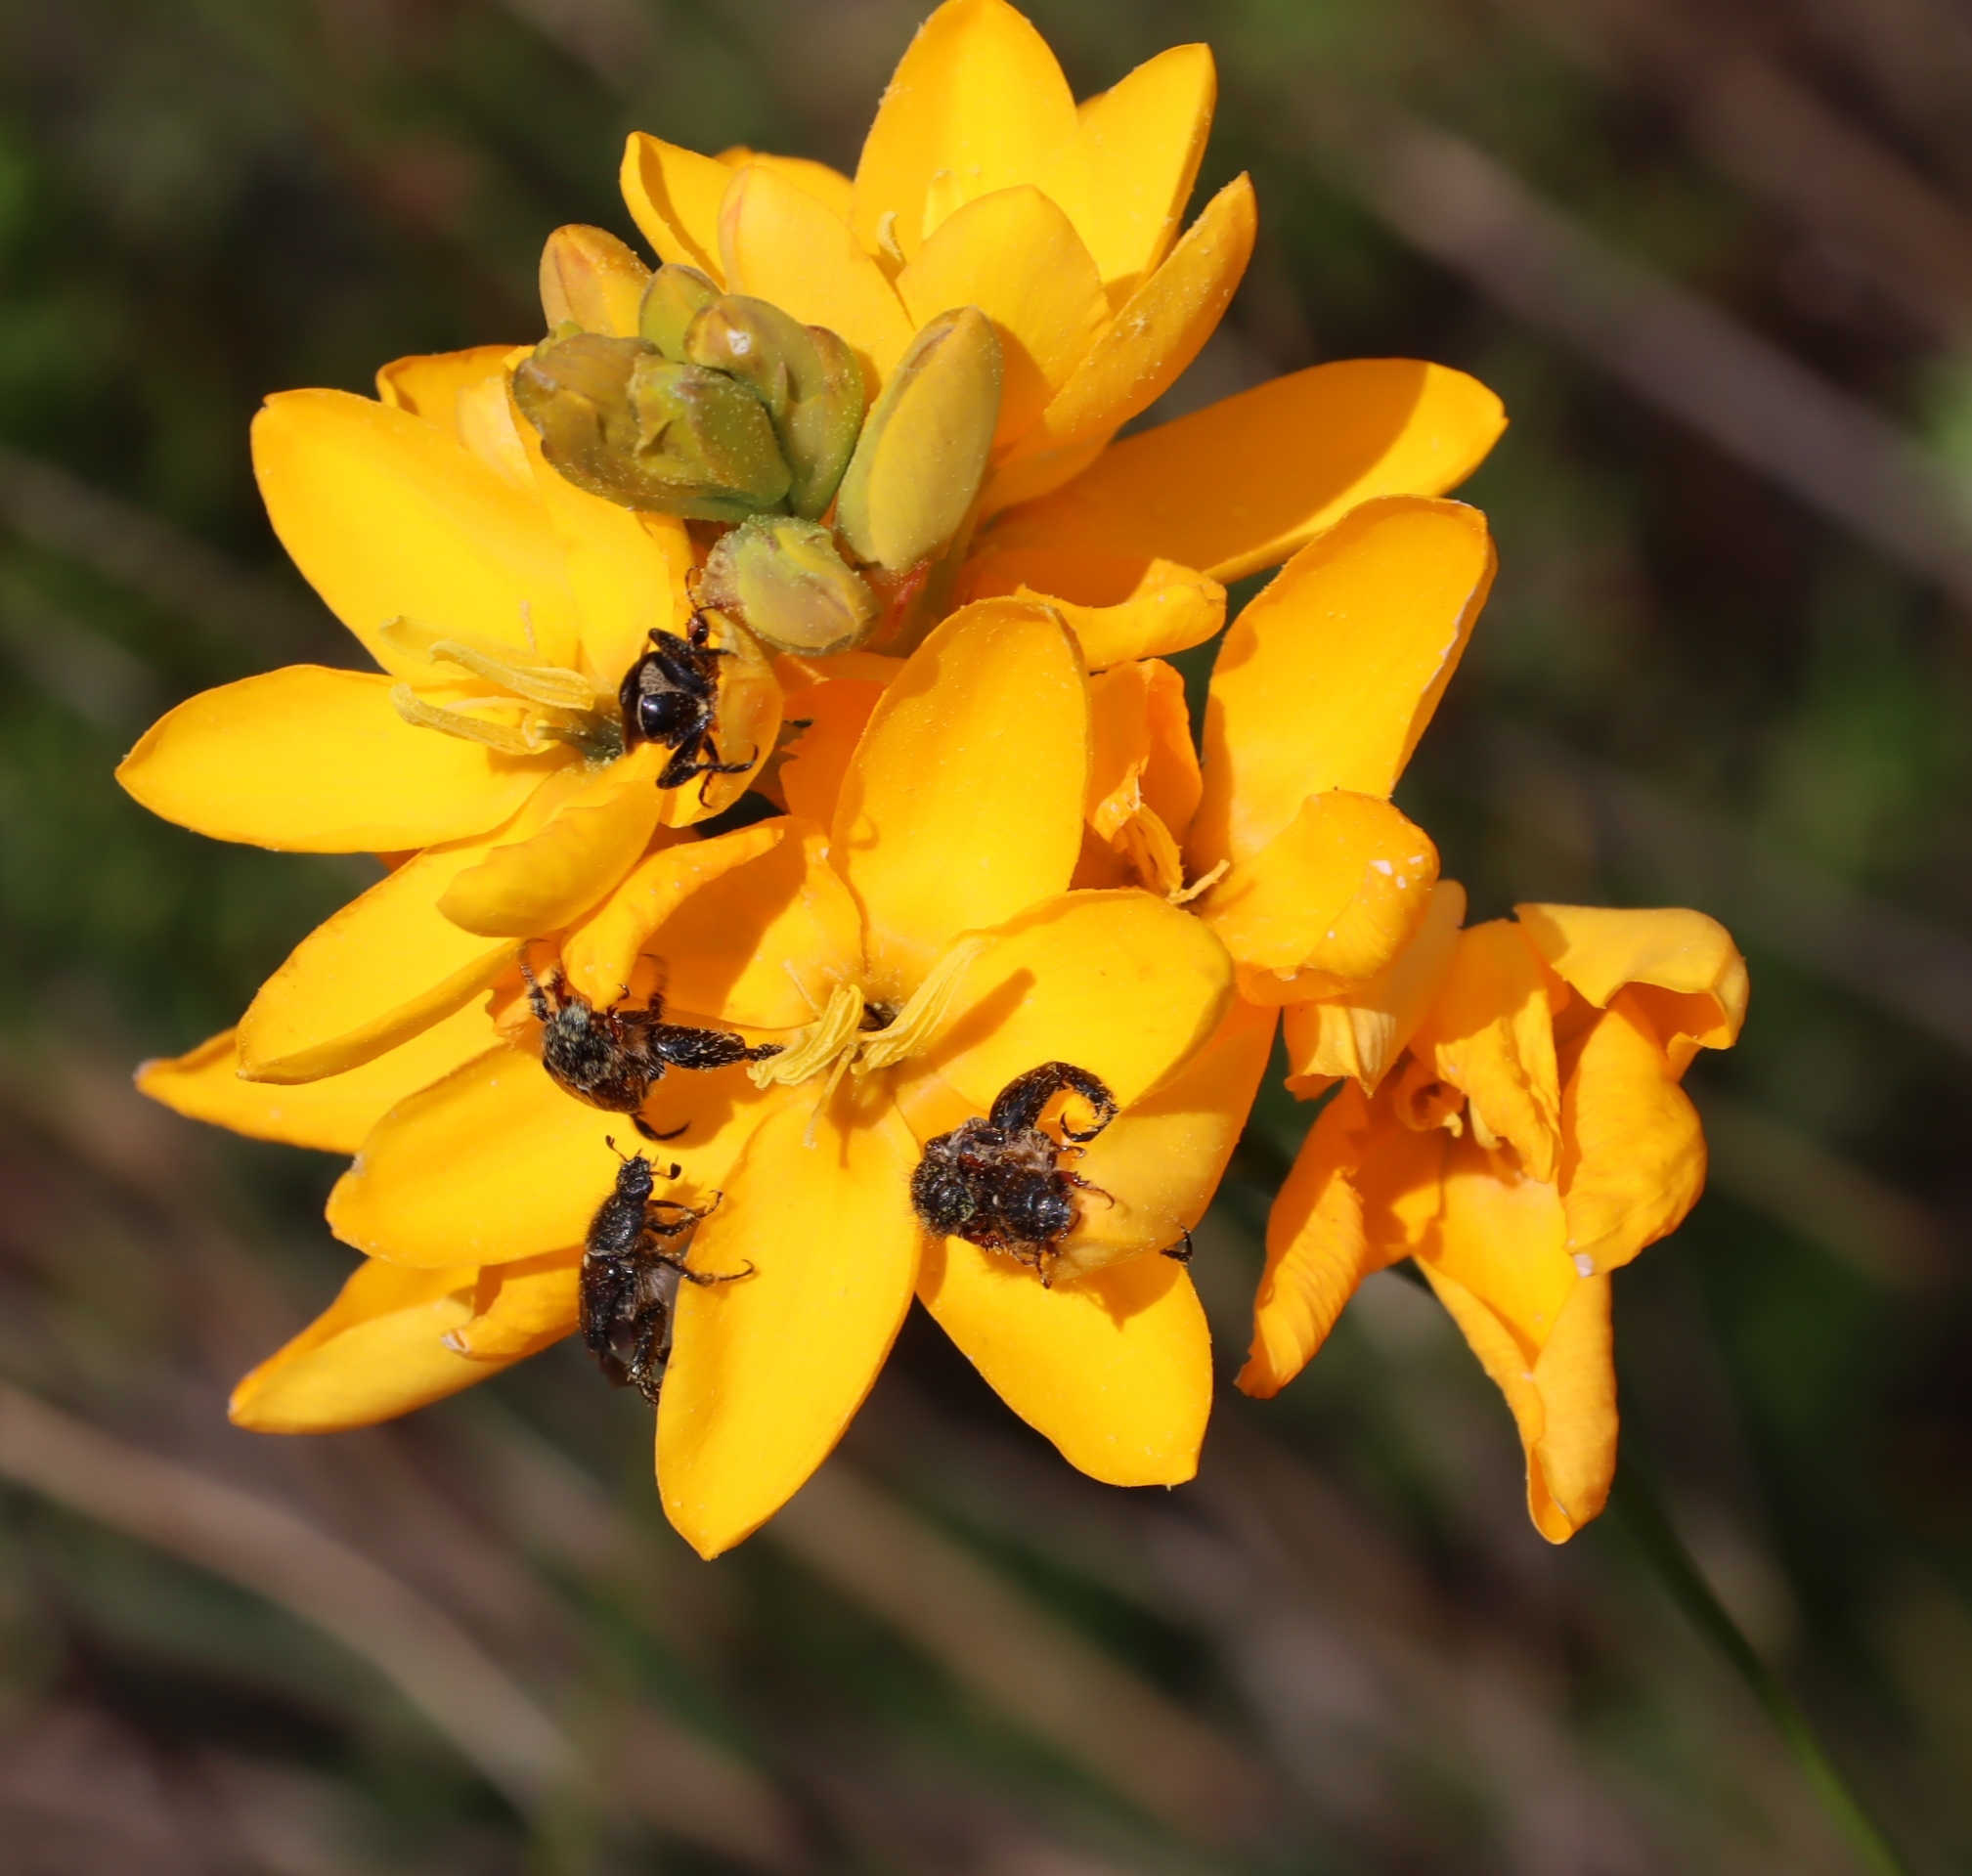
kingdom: Plantae
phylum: Tracheophyta
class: Liliopsida
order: Asparagales
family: Iridaceae
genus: Ixia
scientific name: Ixia dubia
